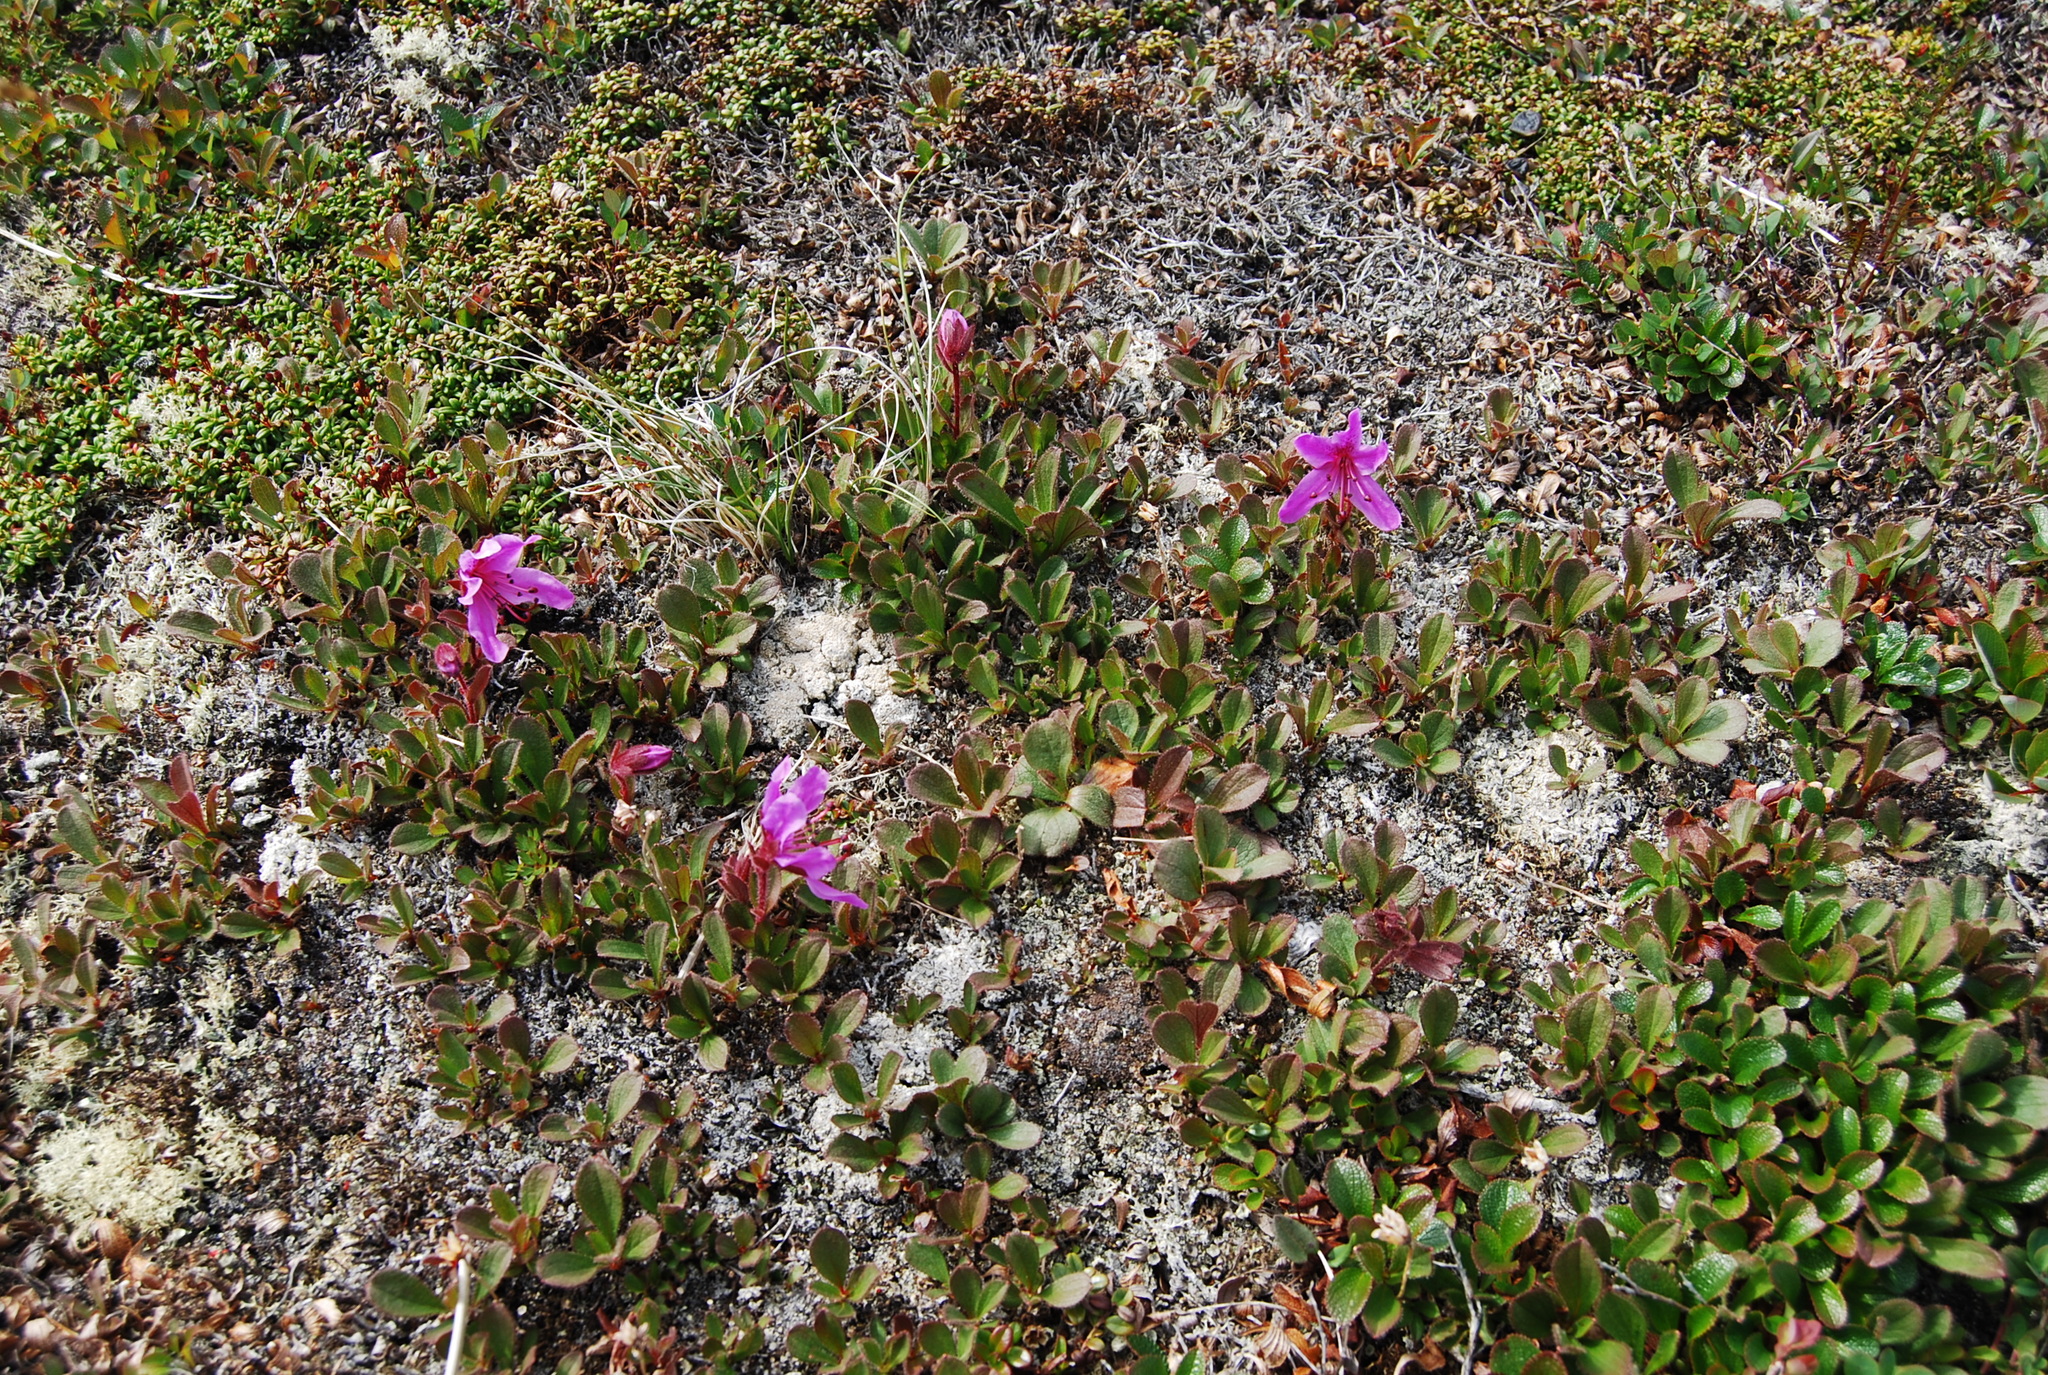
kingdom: Plantae
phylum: Tracheophyta
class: Magnoliopsida
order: Ericales
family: Ericaceae
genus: Rhododendron
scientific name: Rhododendron camtschaticum
